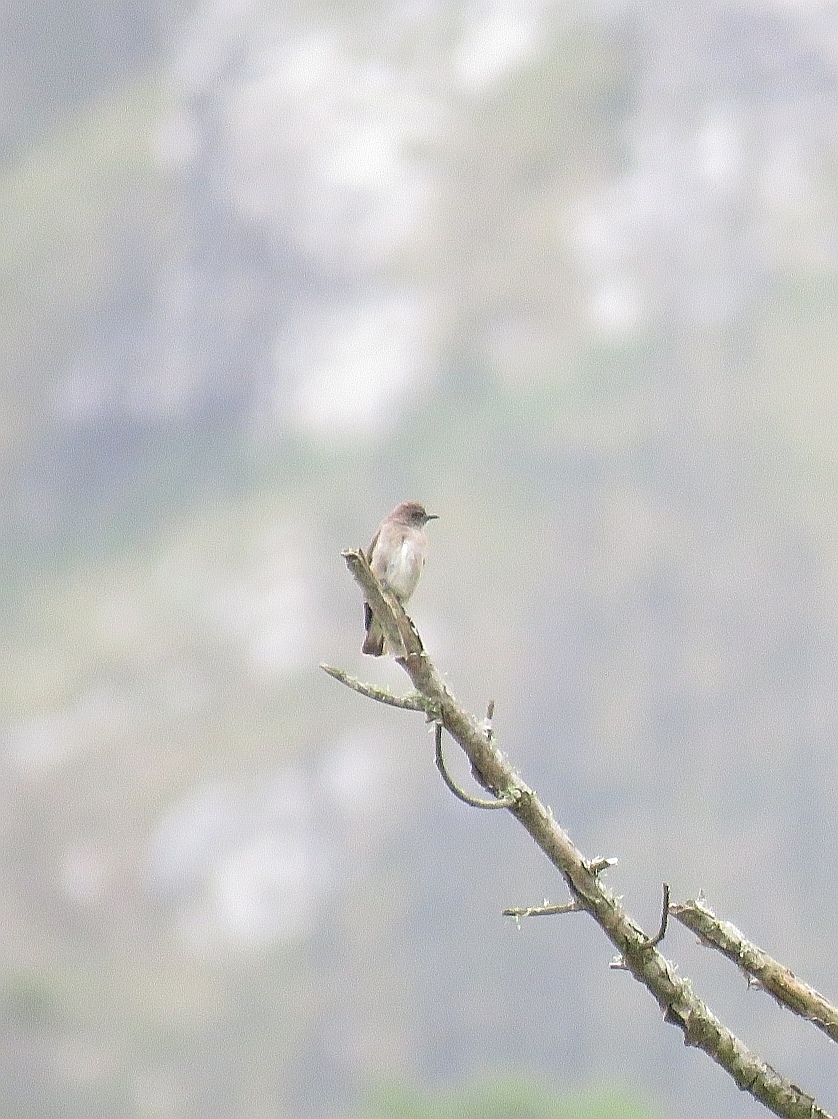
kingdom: Animalia
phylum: Chordata
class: Aves
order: Piciformes
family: Indicatoridae
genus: Prodotiscus
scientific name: Prodotiscus regulus
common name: Brown-backed honeybird
